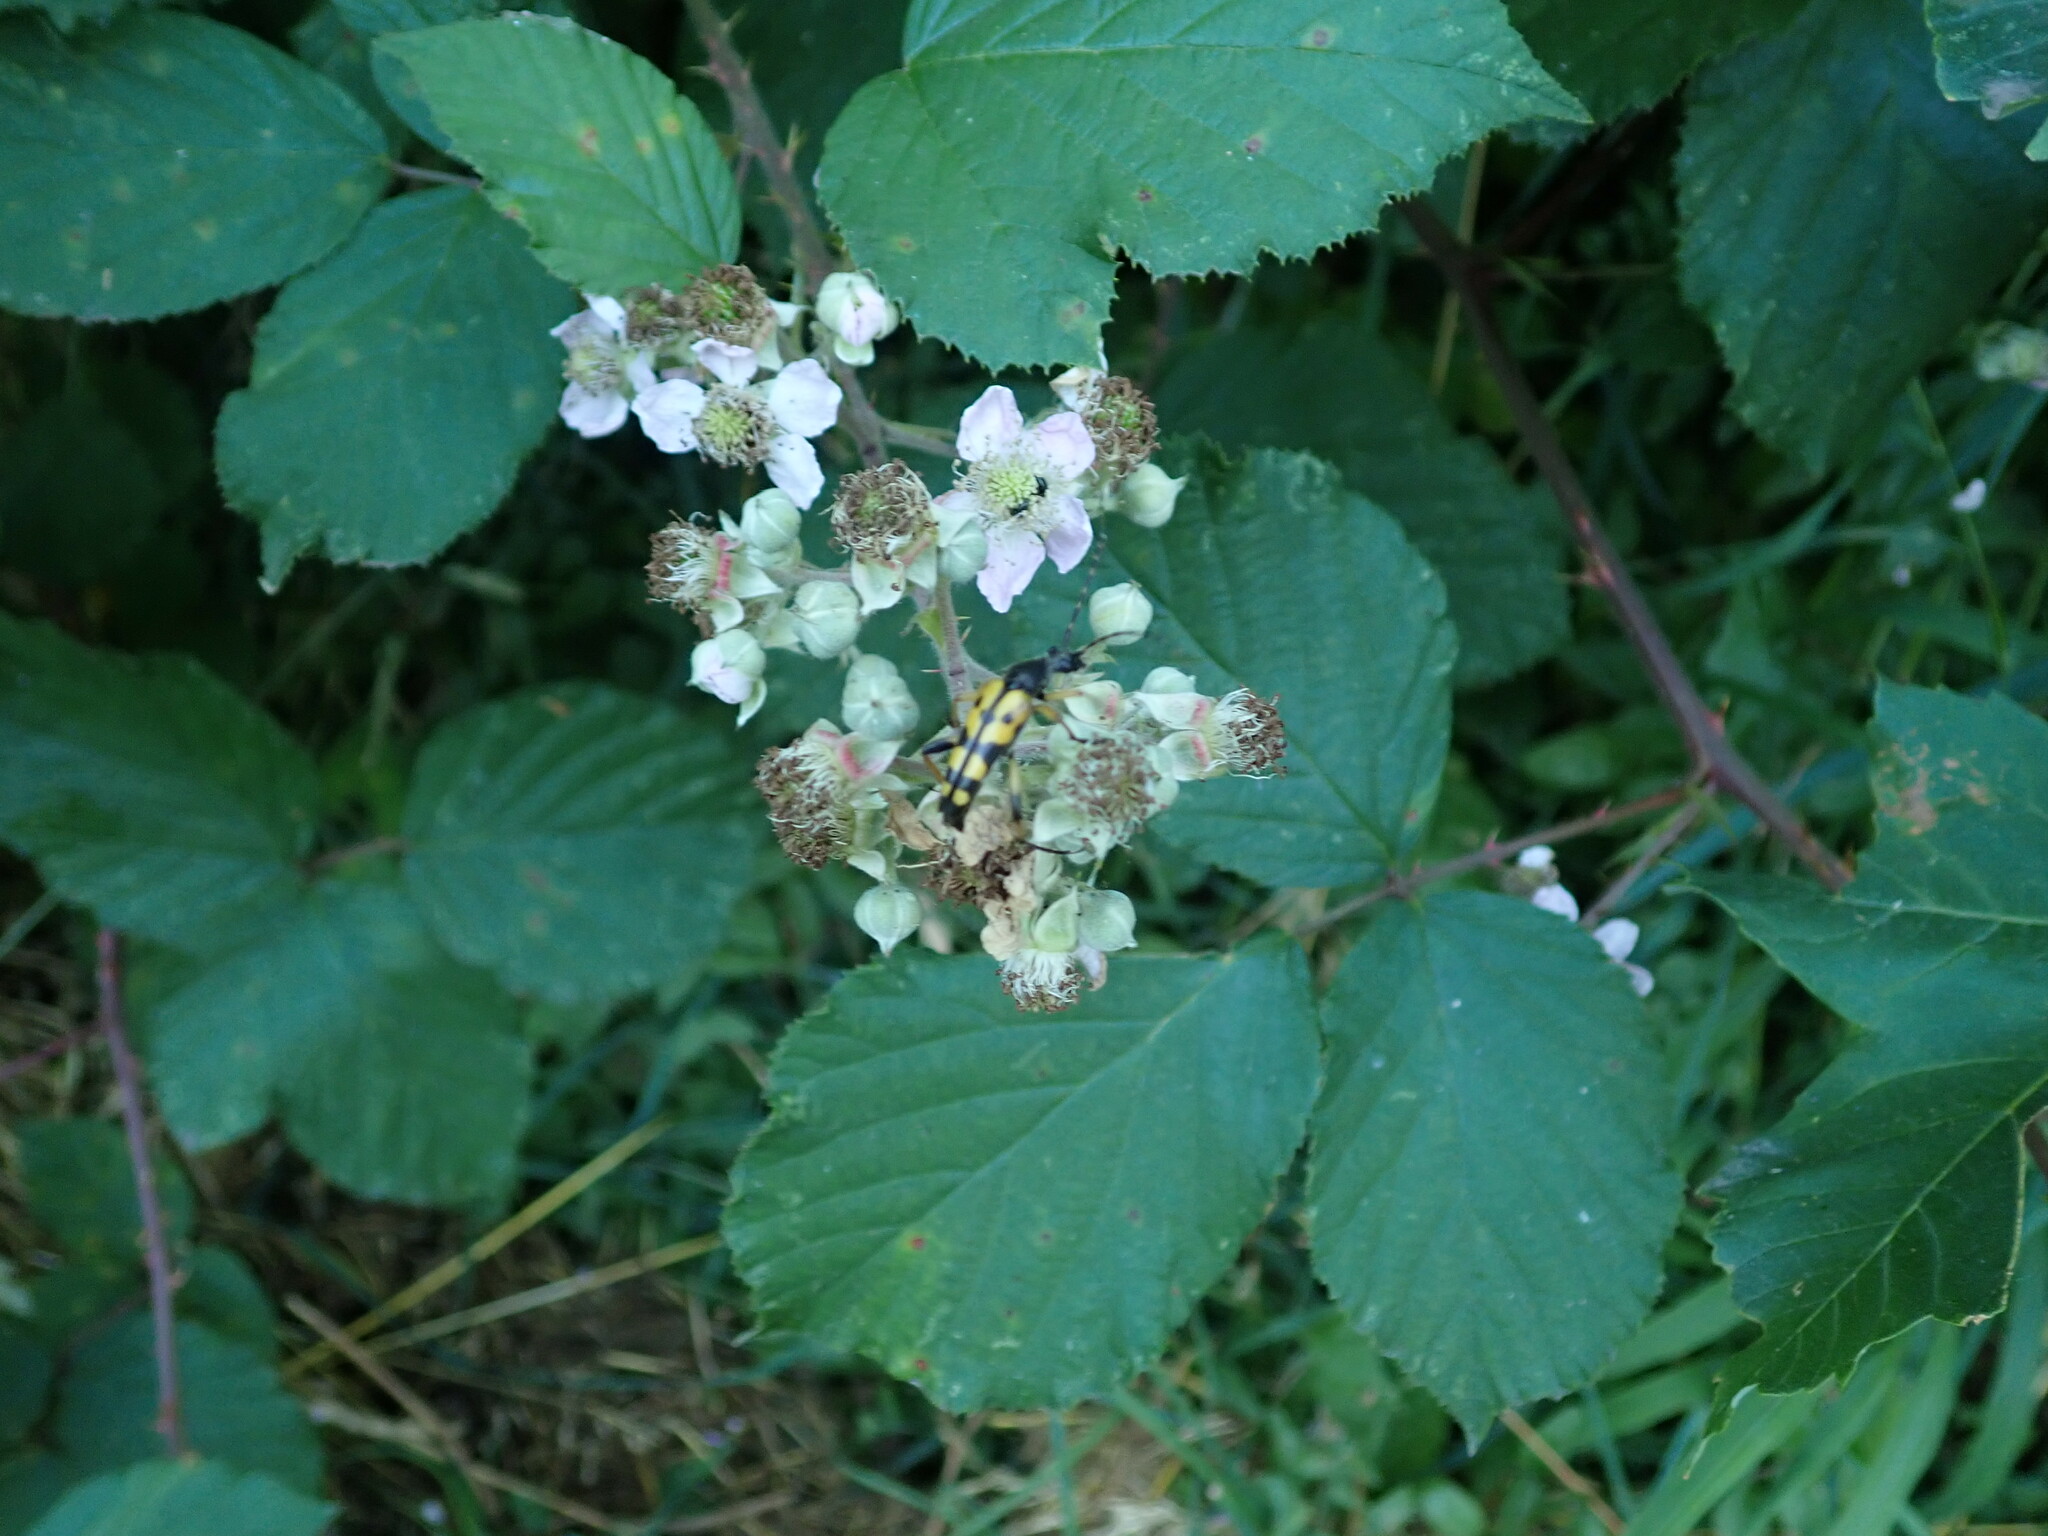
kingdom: Animalia
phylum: Arthropoda
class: Insecta
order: Coleoptera
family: Cerambycidae
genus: Rutpela
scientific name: Rutpela maculata
